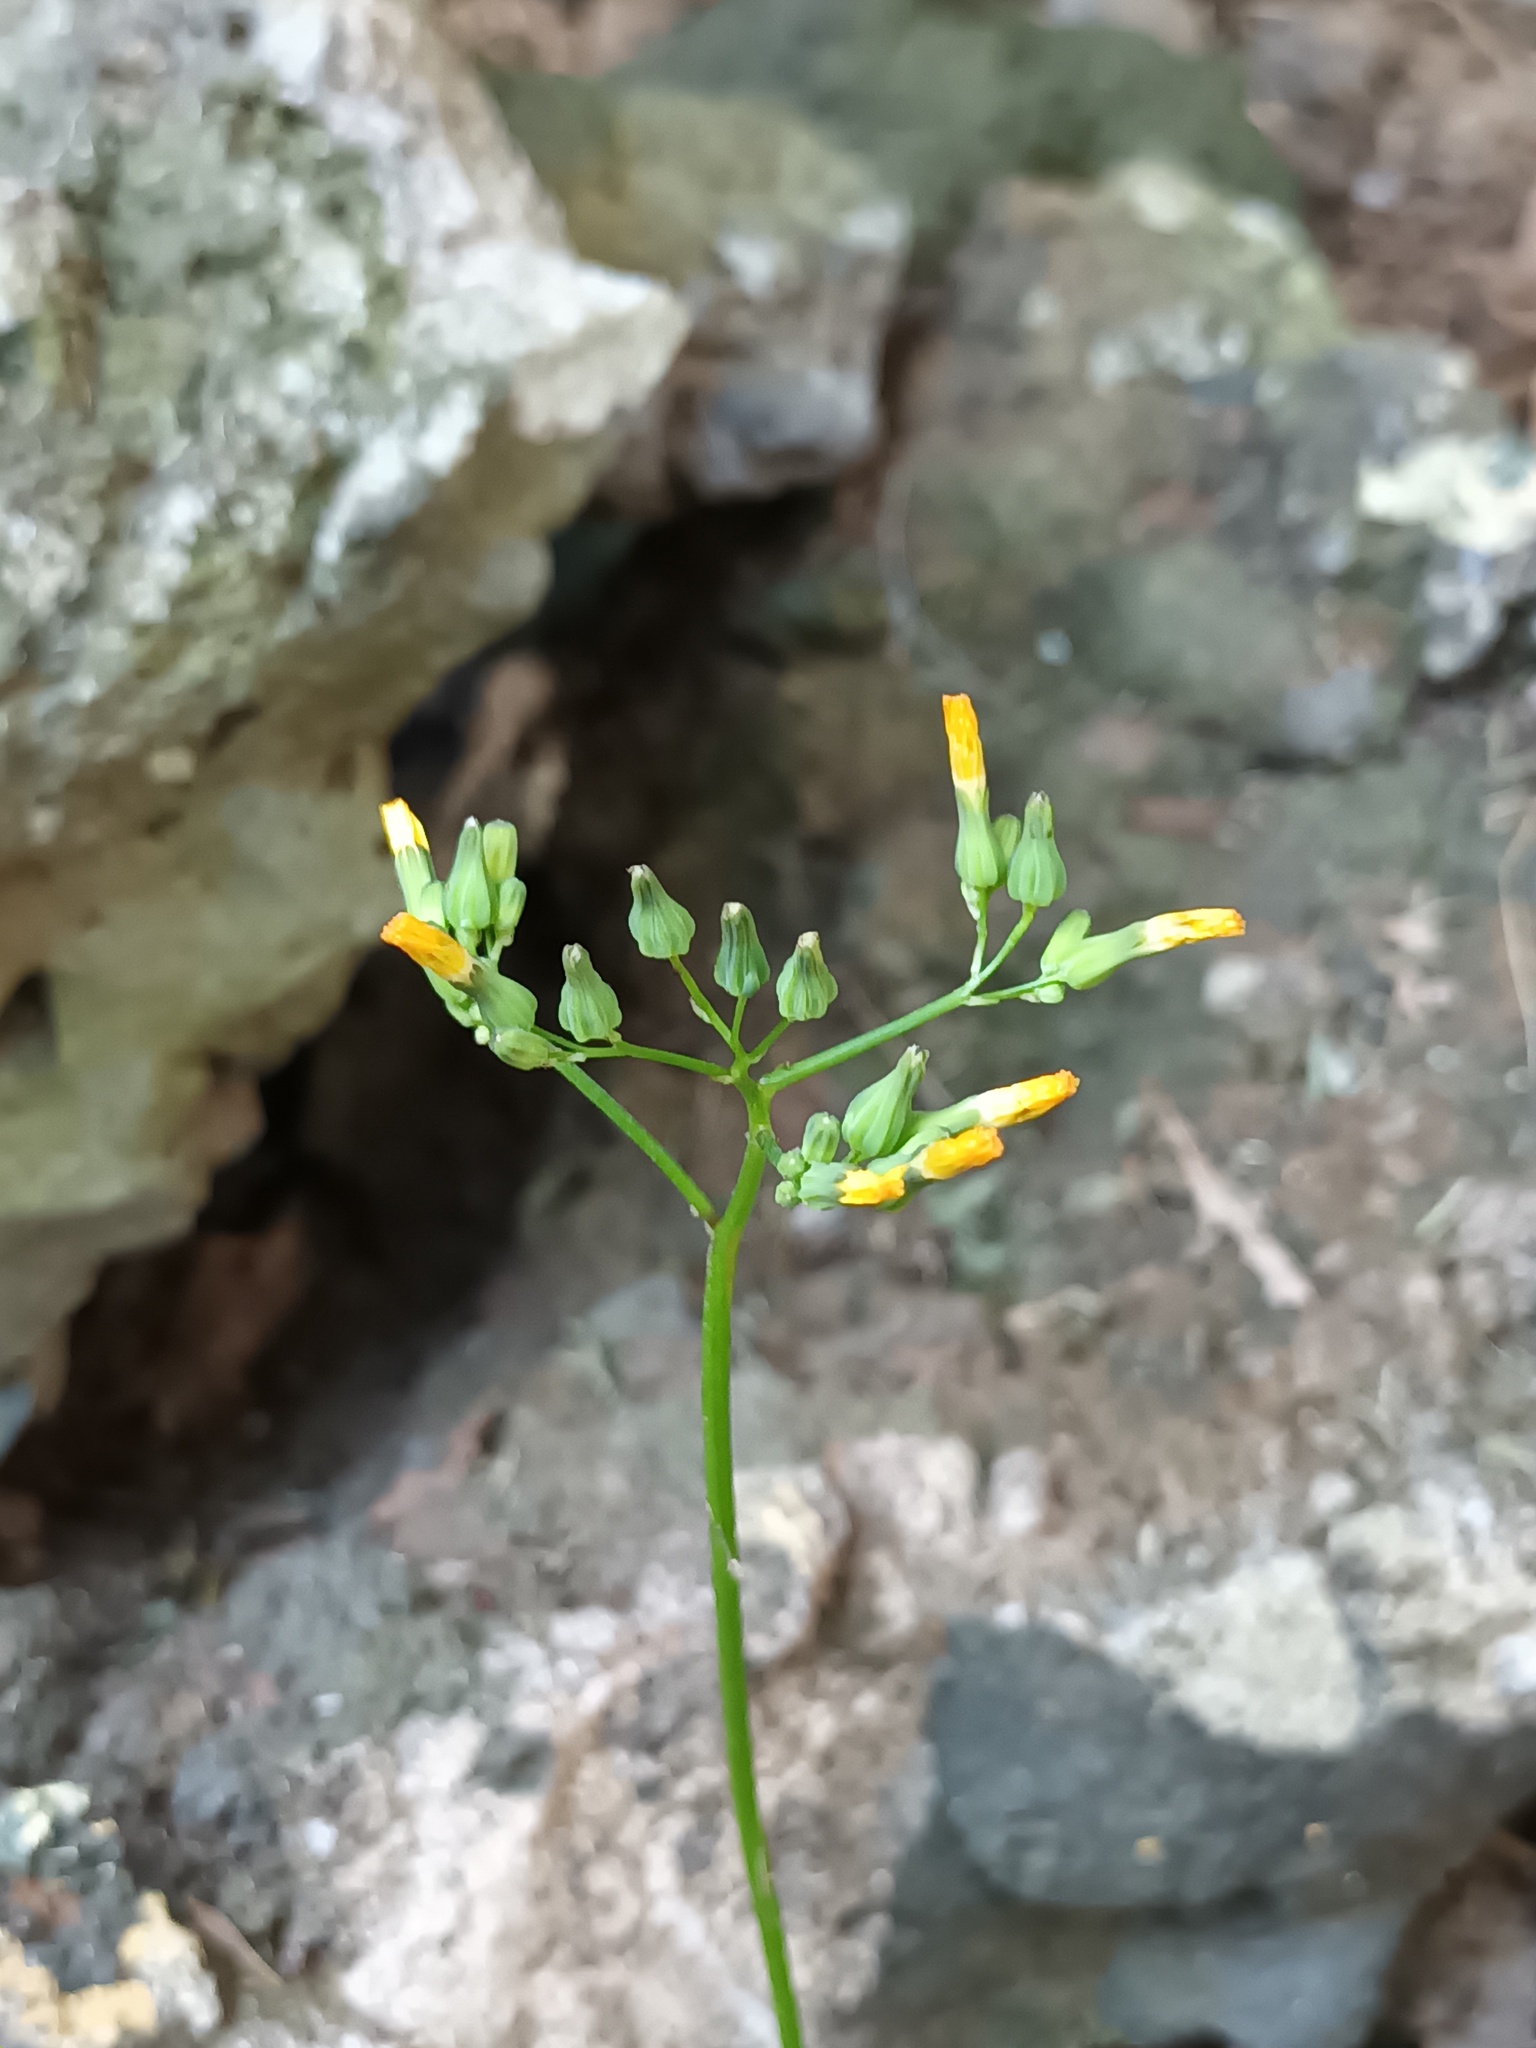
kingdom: Plantae
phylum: Tracheophyta
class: Magnoliopsida
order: Asterales
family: Asteraceae
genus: Youngia
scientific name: Youngia japonica
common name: Oriental false hawksbeard
